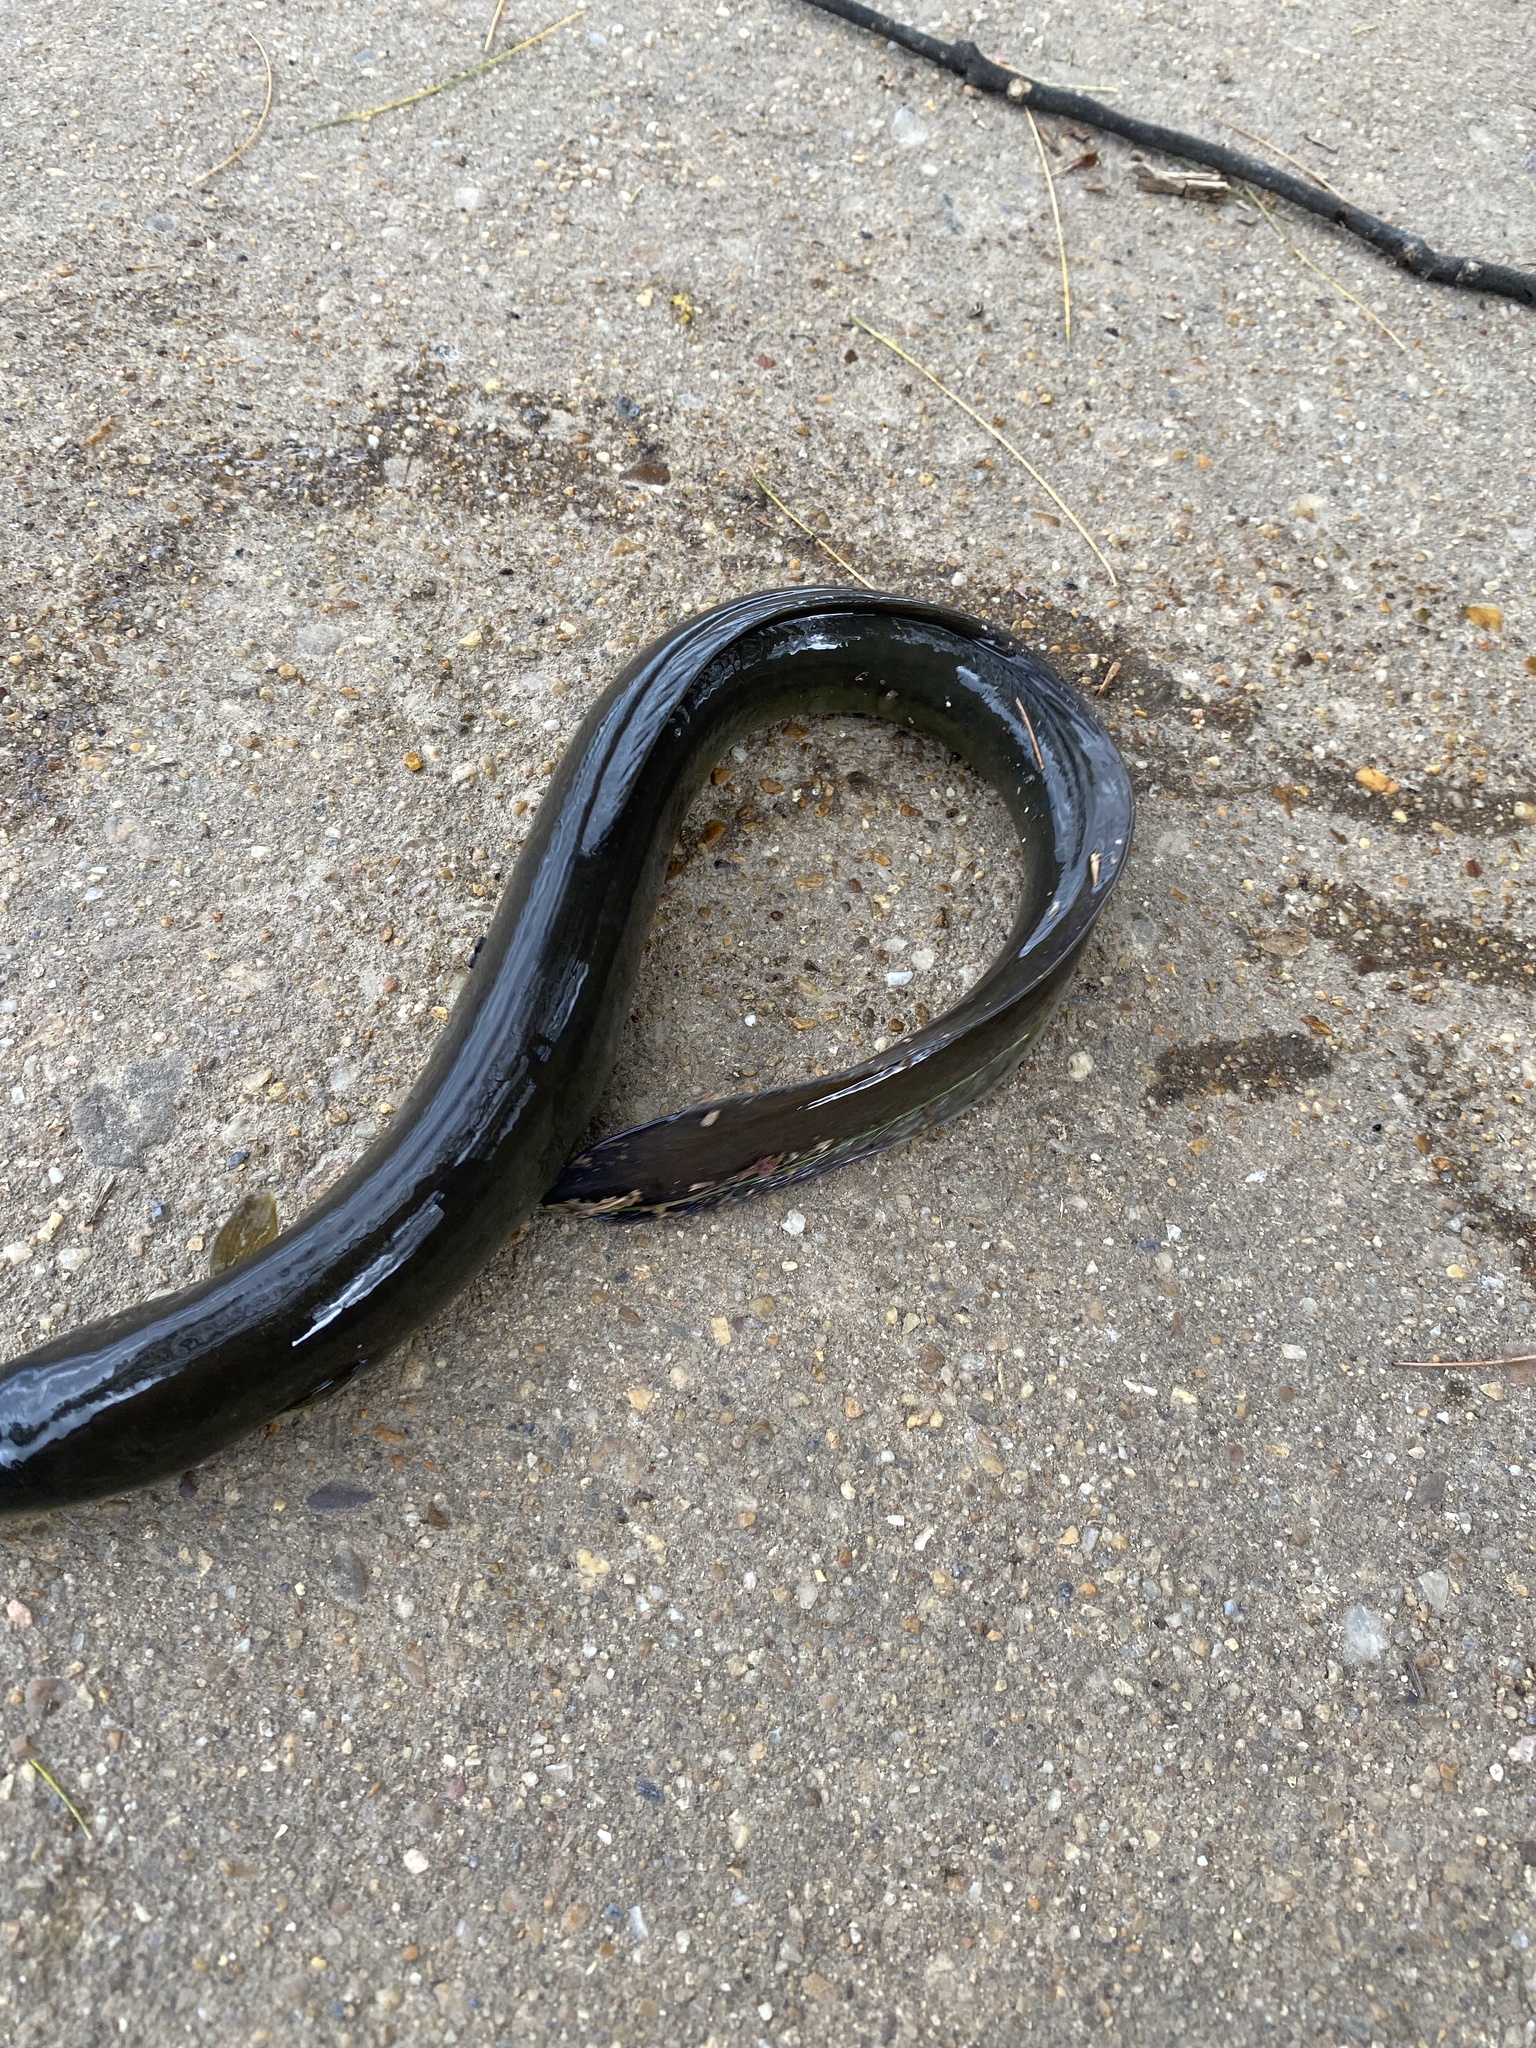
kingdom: Animalia
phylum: Chordata
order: Anguilliformes
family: Anguillidae
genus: Anguilla
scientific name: Anguilla rostrata
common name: American eel
